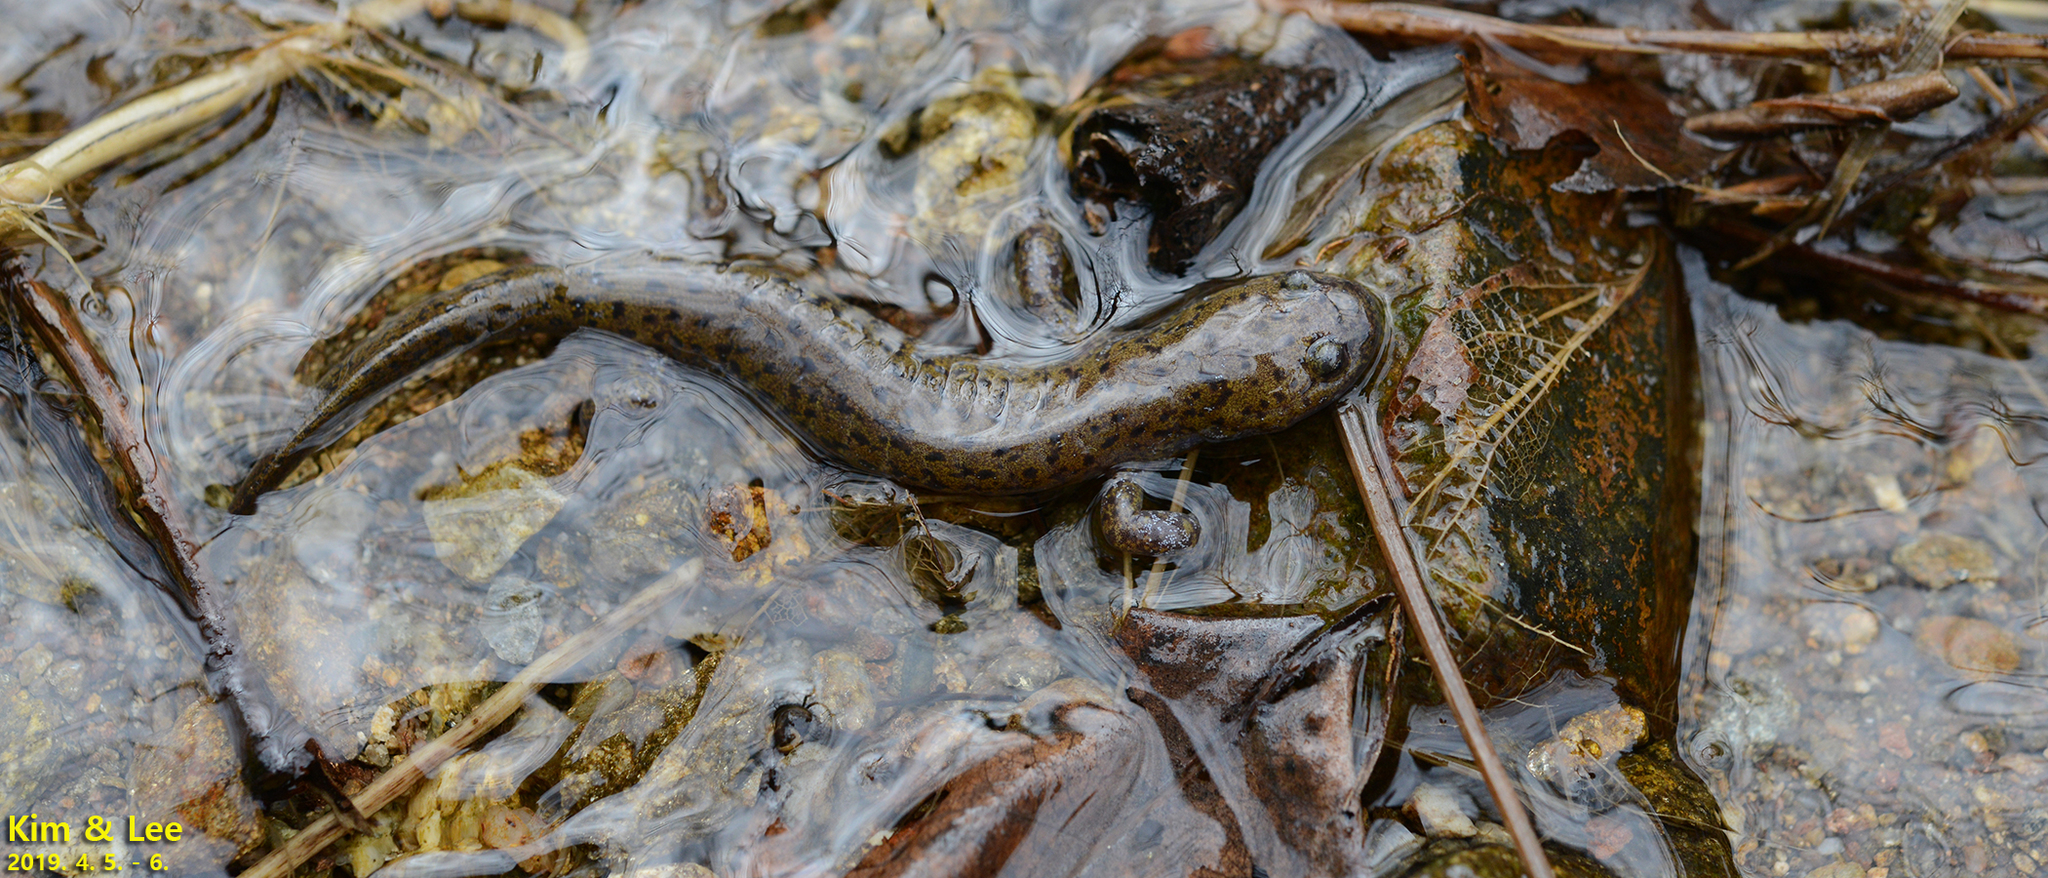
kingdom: Animalia
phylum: Chordata
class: Amphibia
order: Caudata
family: Hynobiidae
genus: Hynobius
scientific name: Hynobius leechii
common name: Gensan salamander
